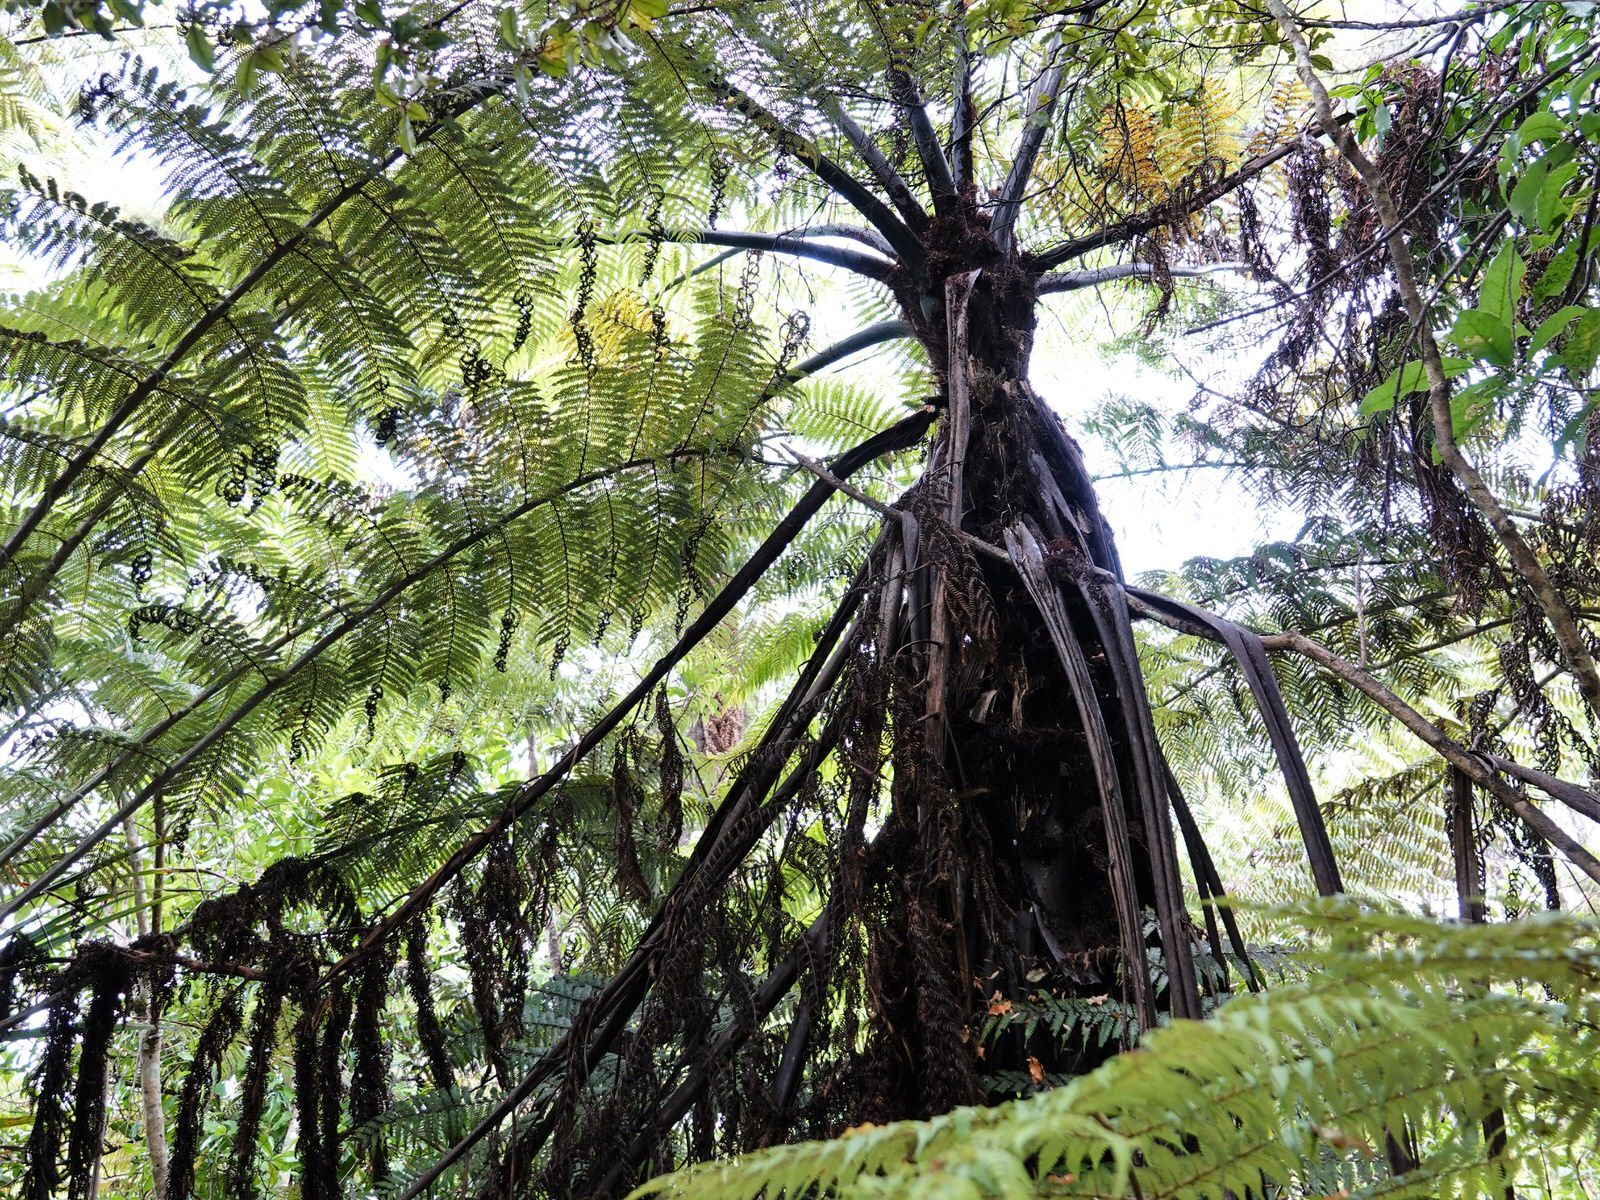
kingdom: Plantae
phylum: Tracheophyta
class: Polypodiopsida
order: Cyatheales
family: Cyatheaceae
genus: Sphaeropteris
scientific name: Sphaeropteris medullaris
